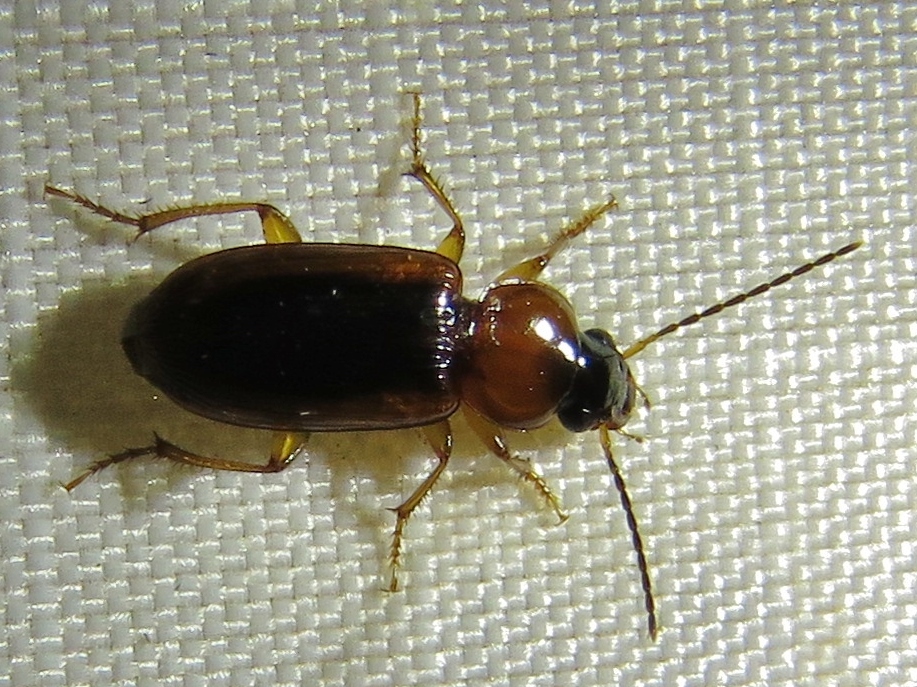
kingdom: Animalia
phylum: Arthropoda
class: Insecta
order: Coleoptera
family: Carabidae
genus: Stenolophus
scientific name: Stenolophus dissimilis
